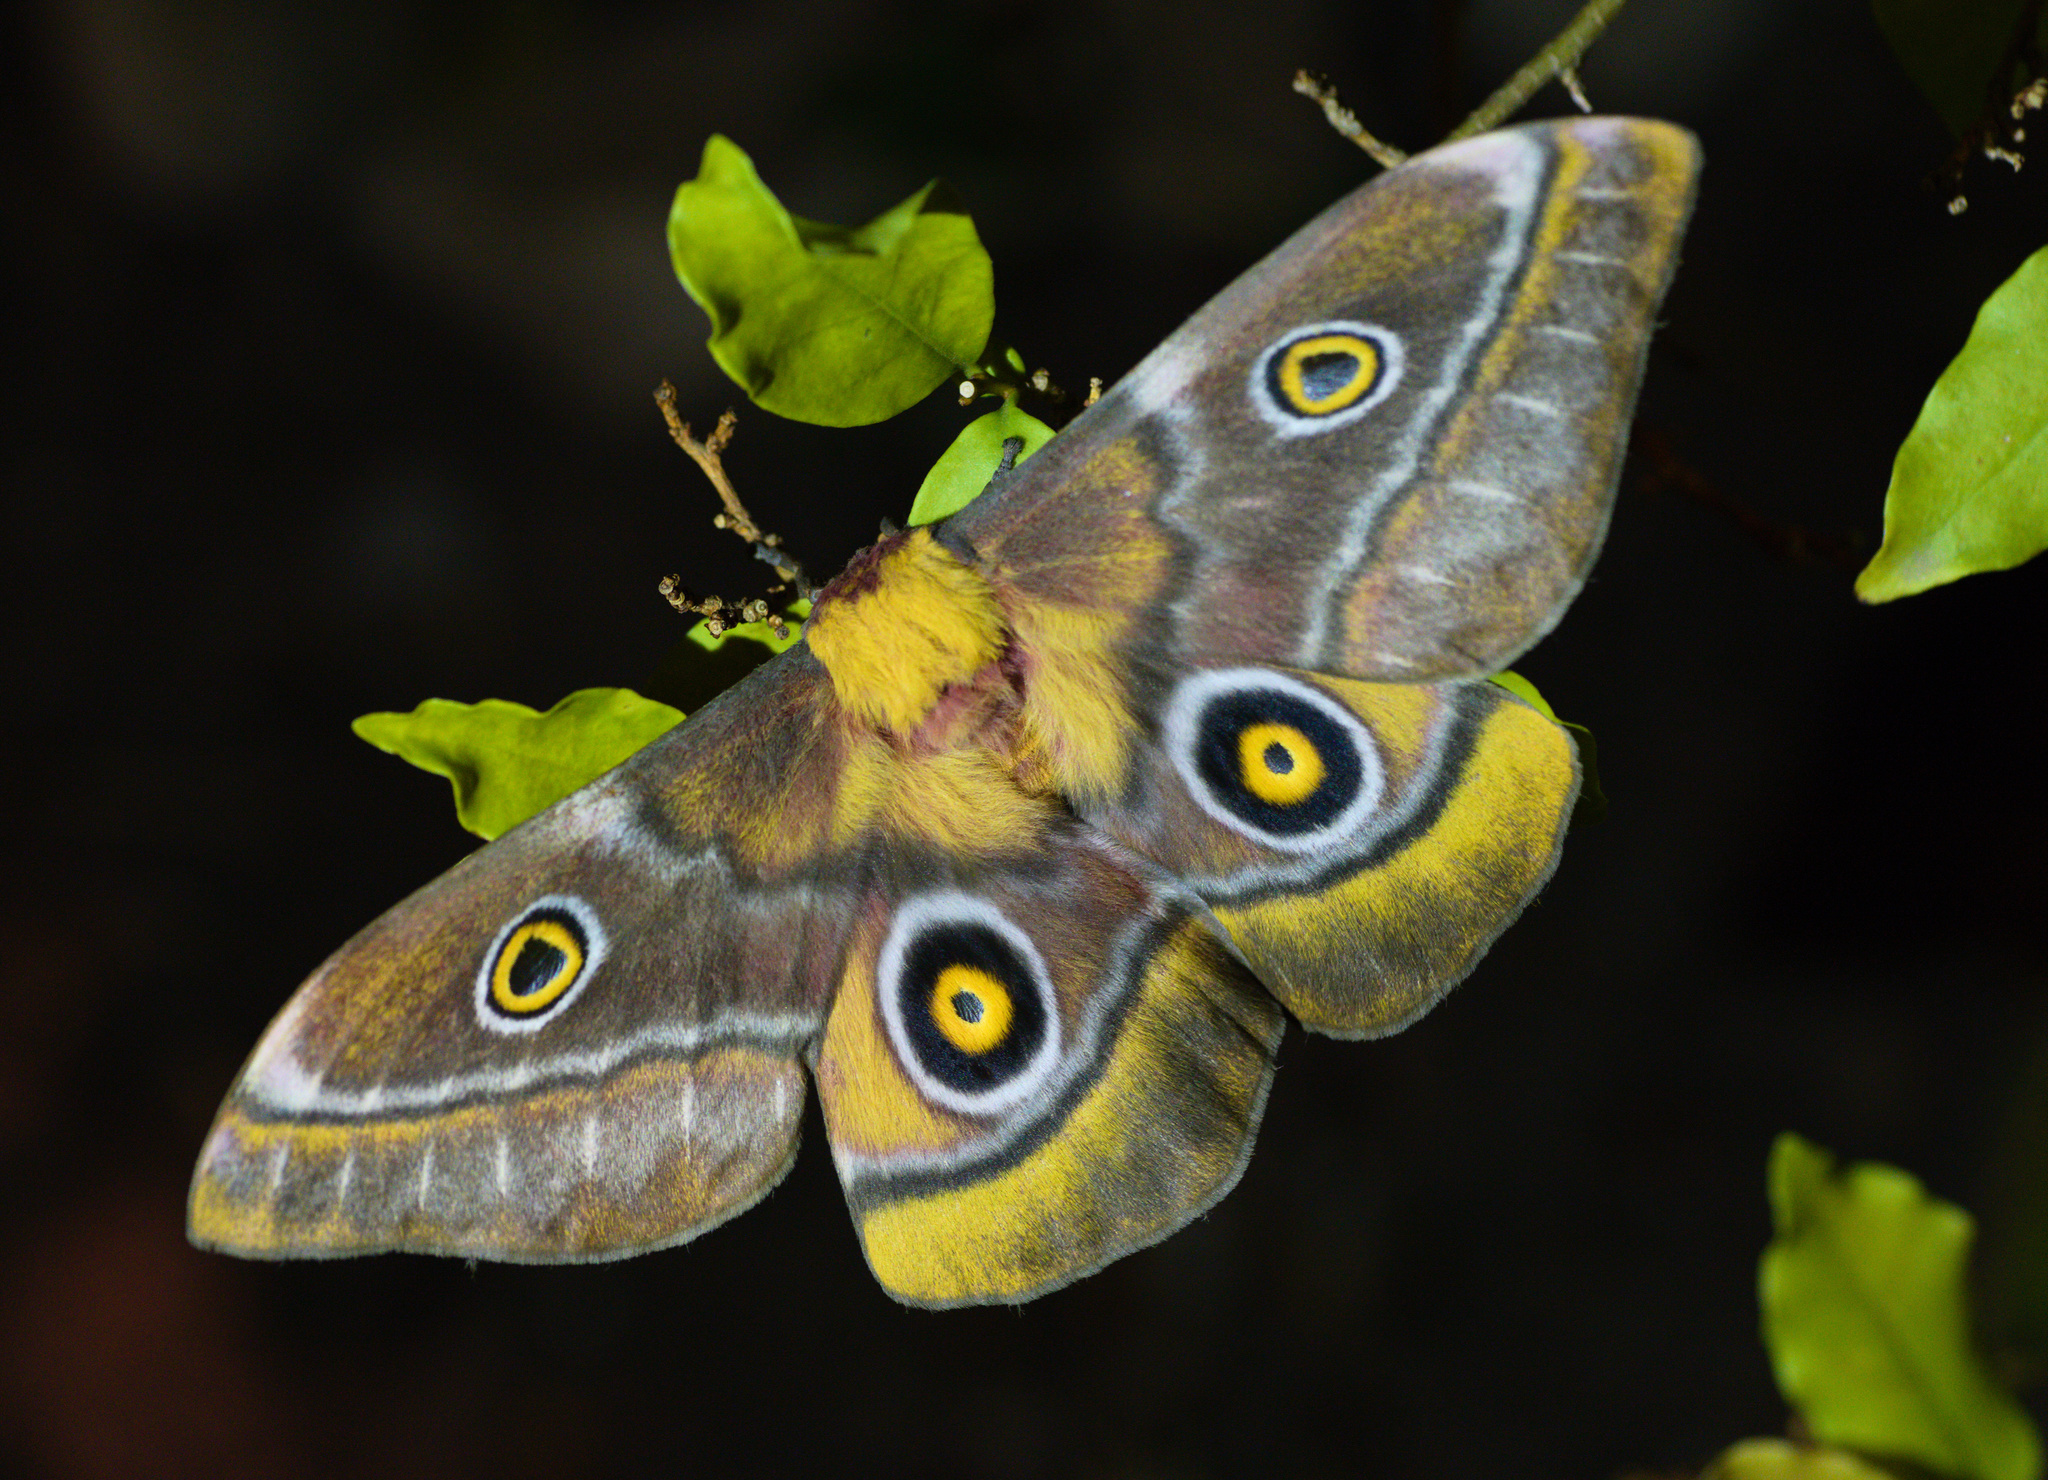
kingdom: Animalia
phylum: Arthropoda
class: Insecta
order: Lepidoptera
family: Saturniidae
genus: Nudaurelia
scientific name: Nudaurelia cytherea
